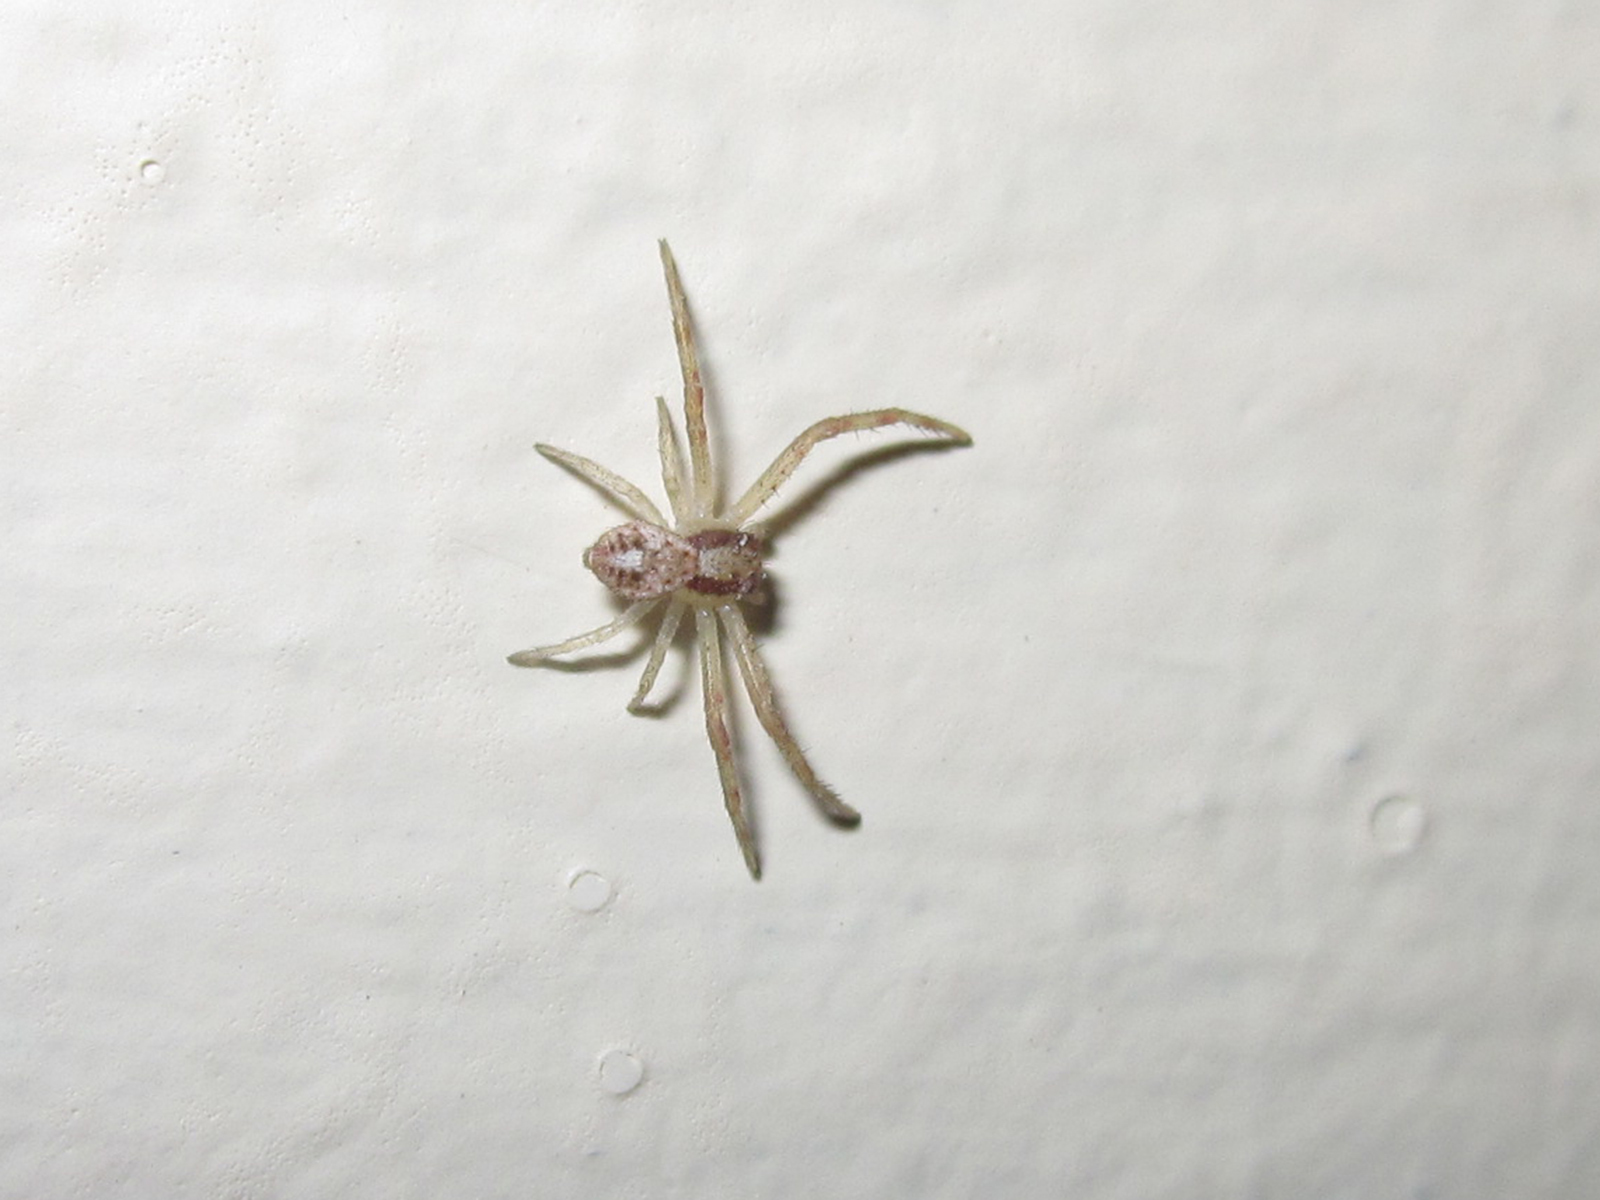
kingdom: Animalia
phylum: Arthropoda
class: Arachnida
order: Araneae
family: Thomisidae
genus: Misumenops
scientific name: Misumenops temibilis
